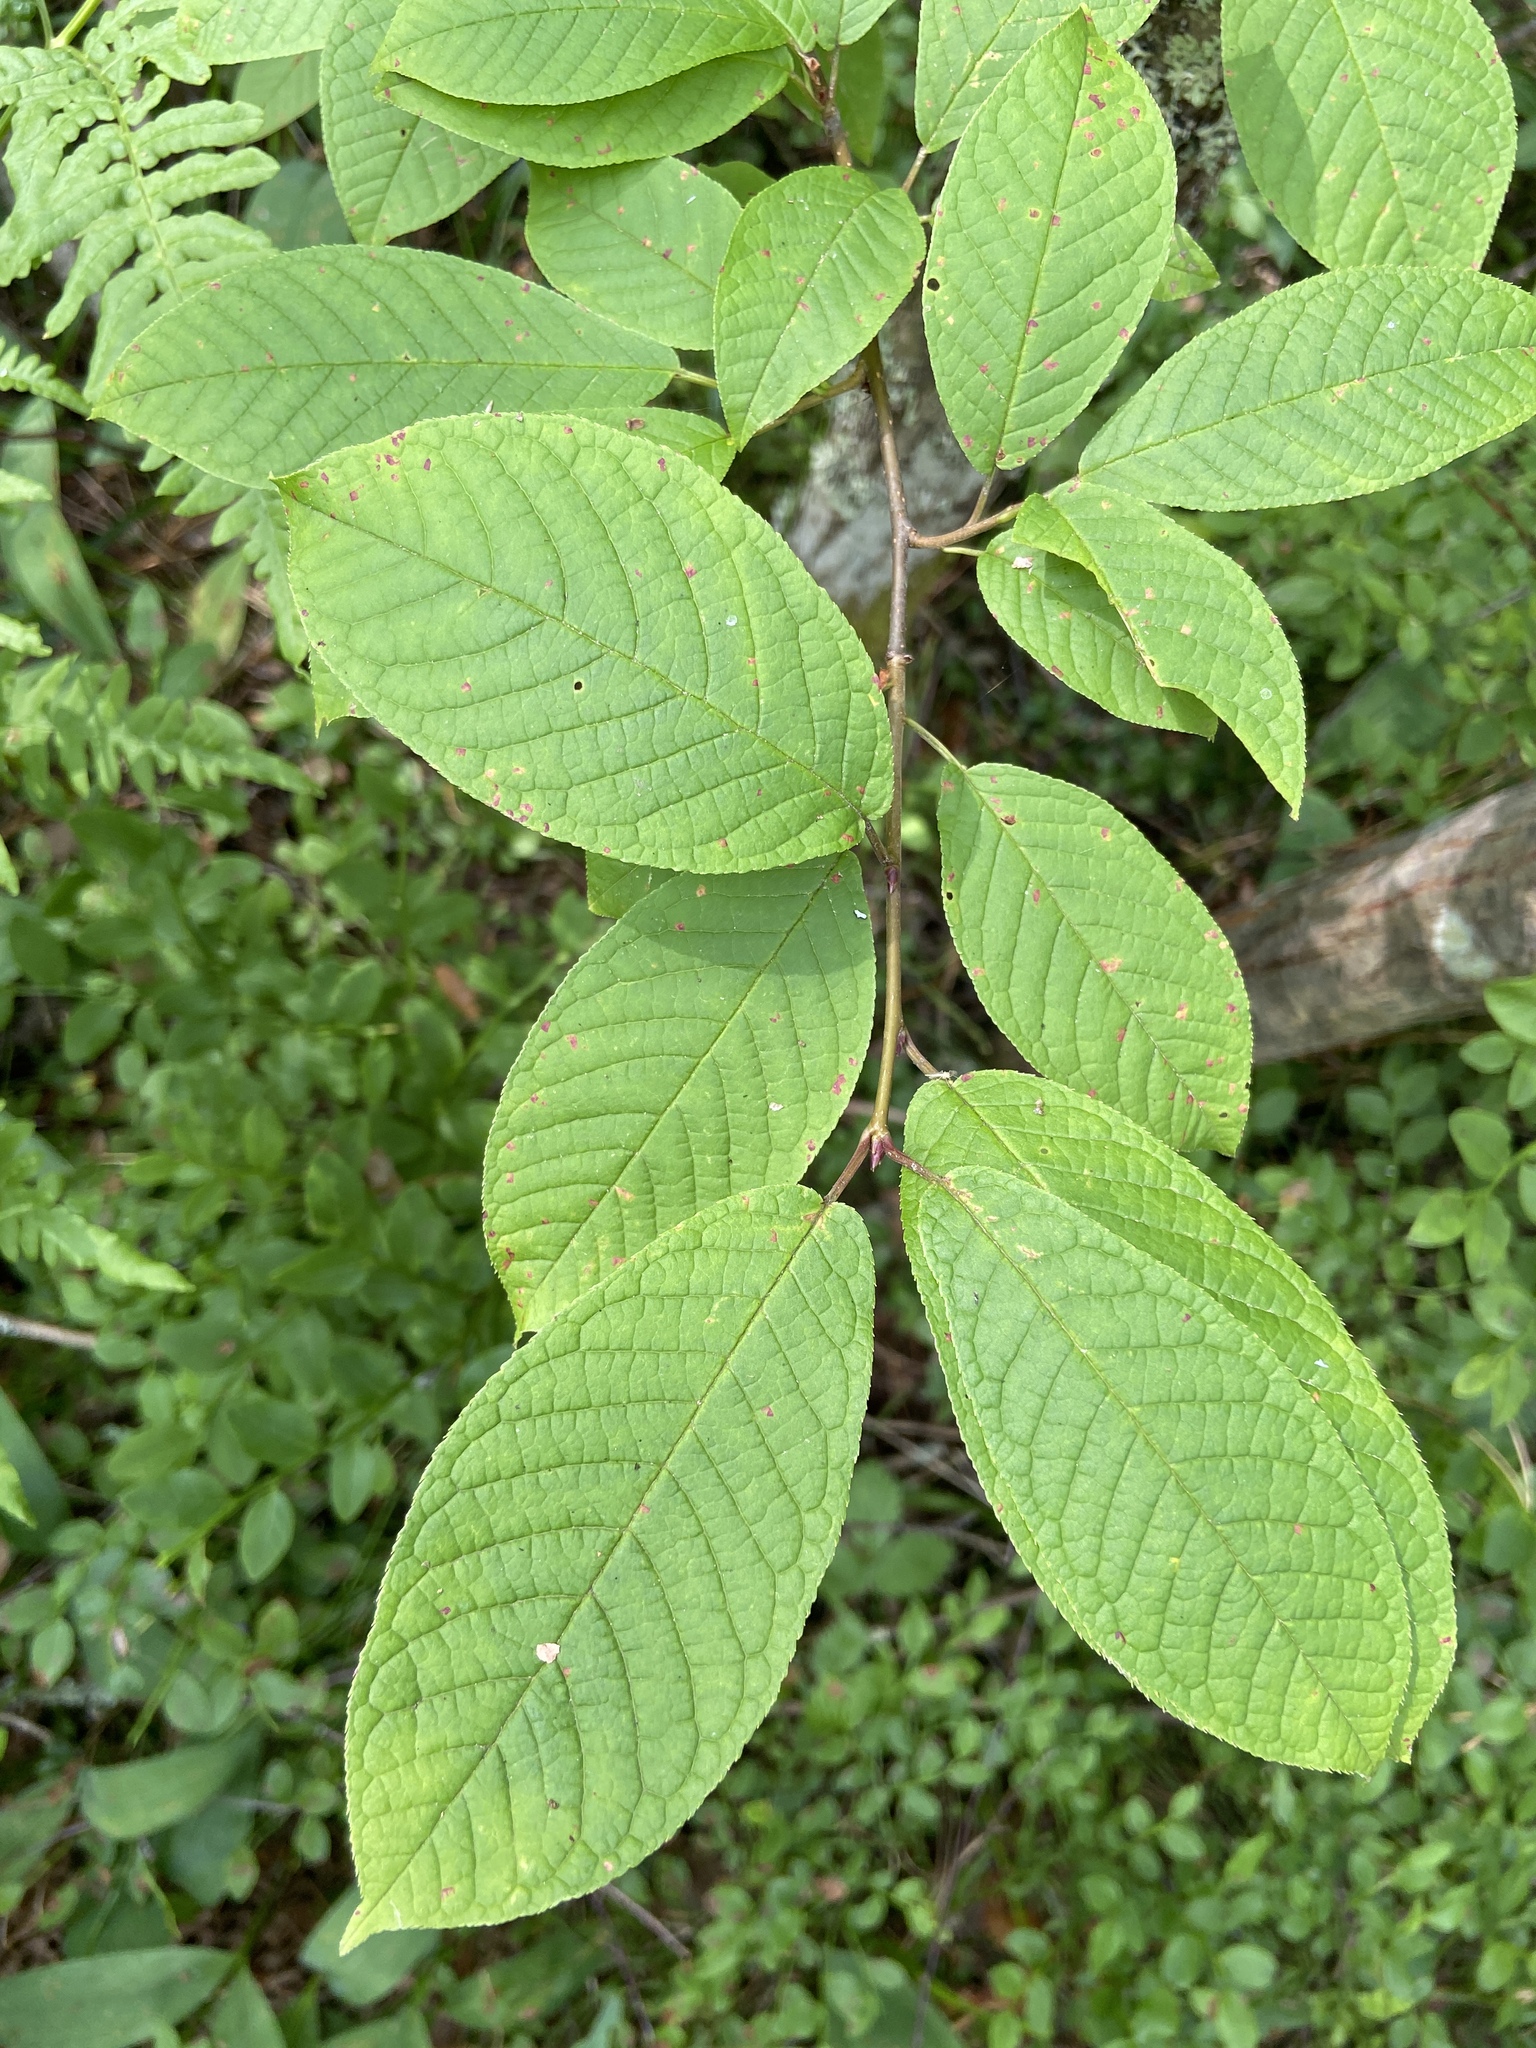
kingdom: Plantae
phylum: Tracheophyta
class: Magnoliopsida
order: Rosales
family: Rosaceae
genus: Prunus
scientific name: Prunus padus
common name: Bird cherry
